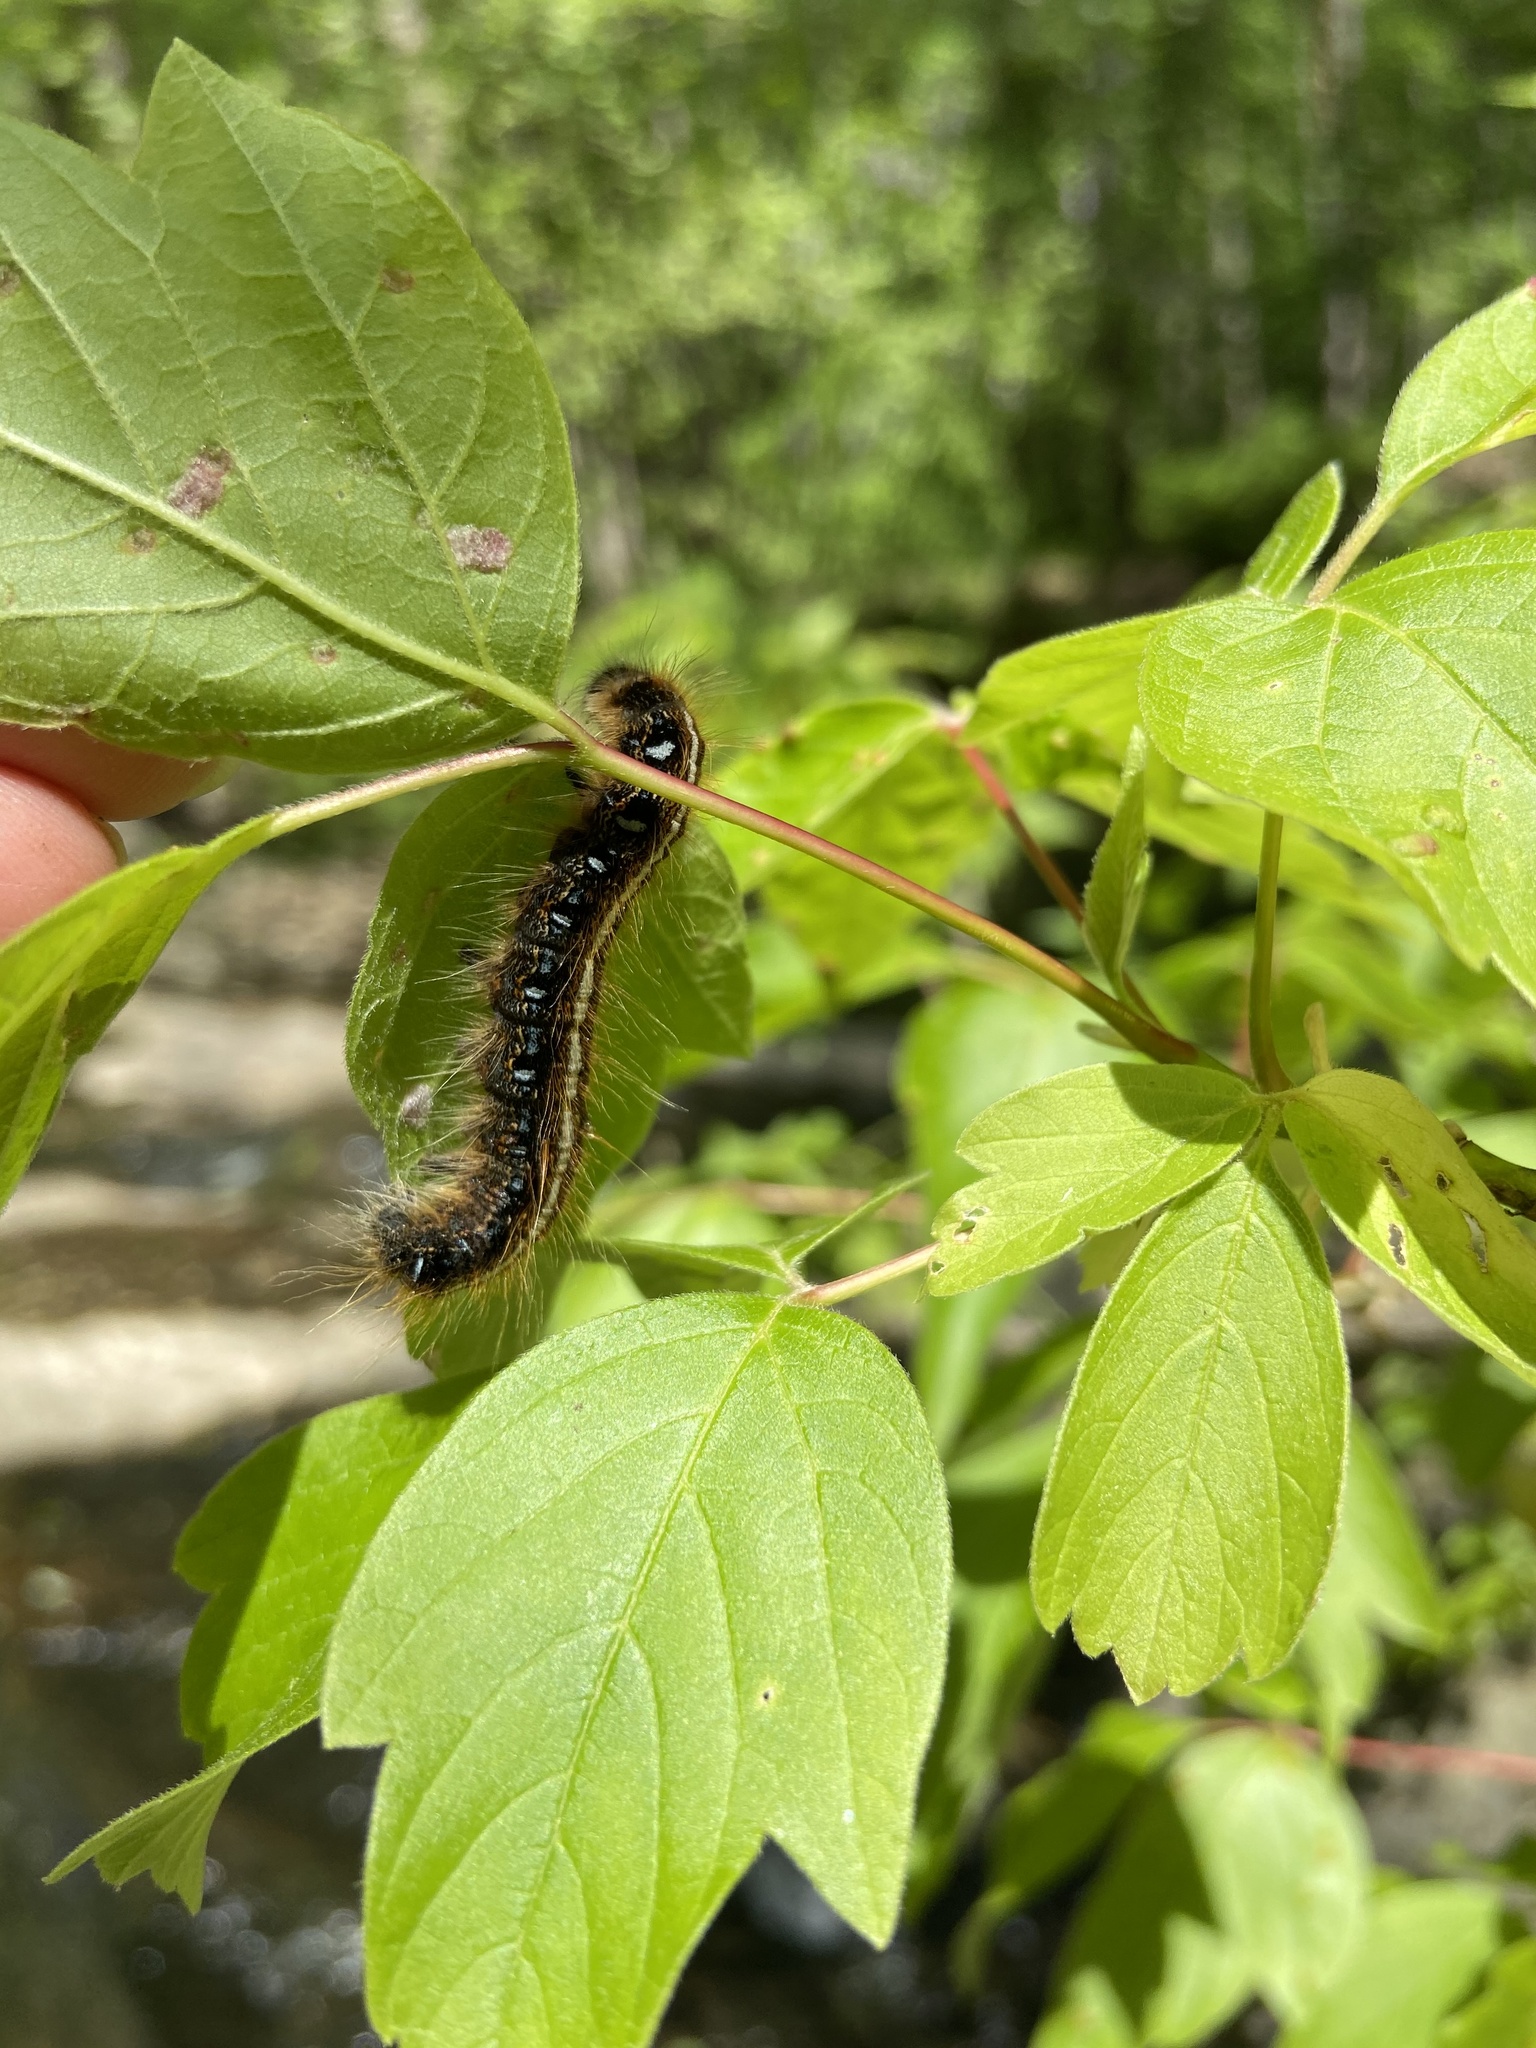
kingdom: Animalia
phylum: Arthropoda
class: Insecta
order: Lepidoptera
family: Lasiocampidae
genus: Malacosoma
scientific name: Malacosoma americana
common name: Eastern tent caterpillar moth
